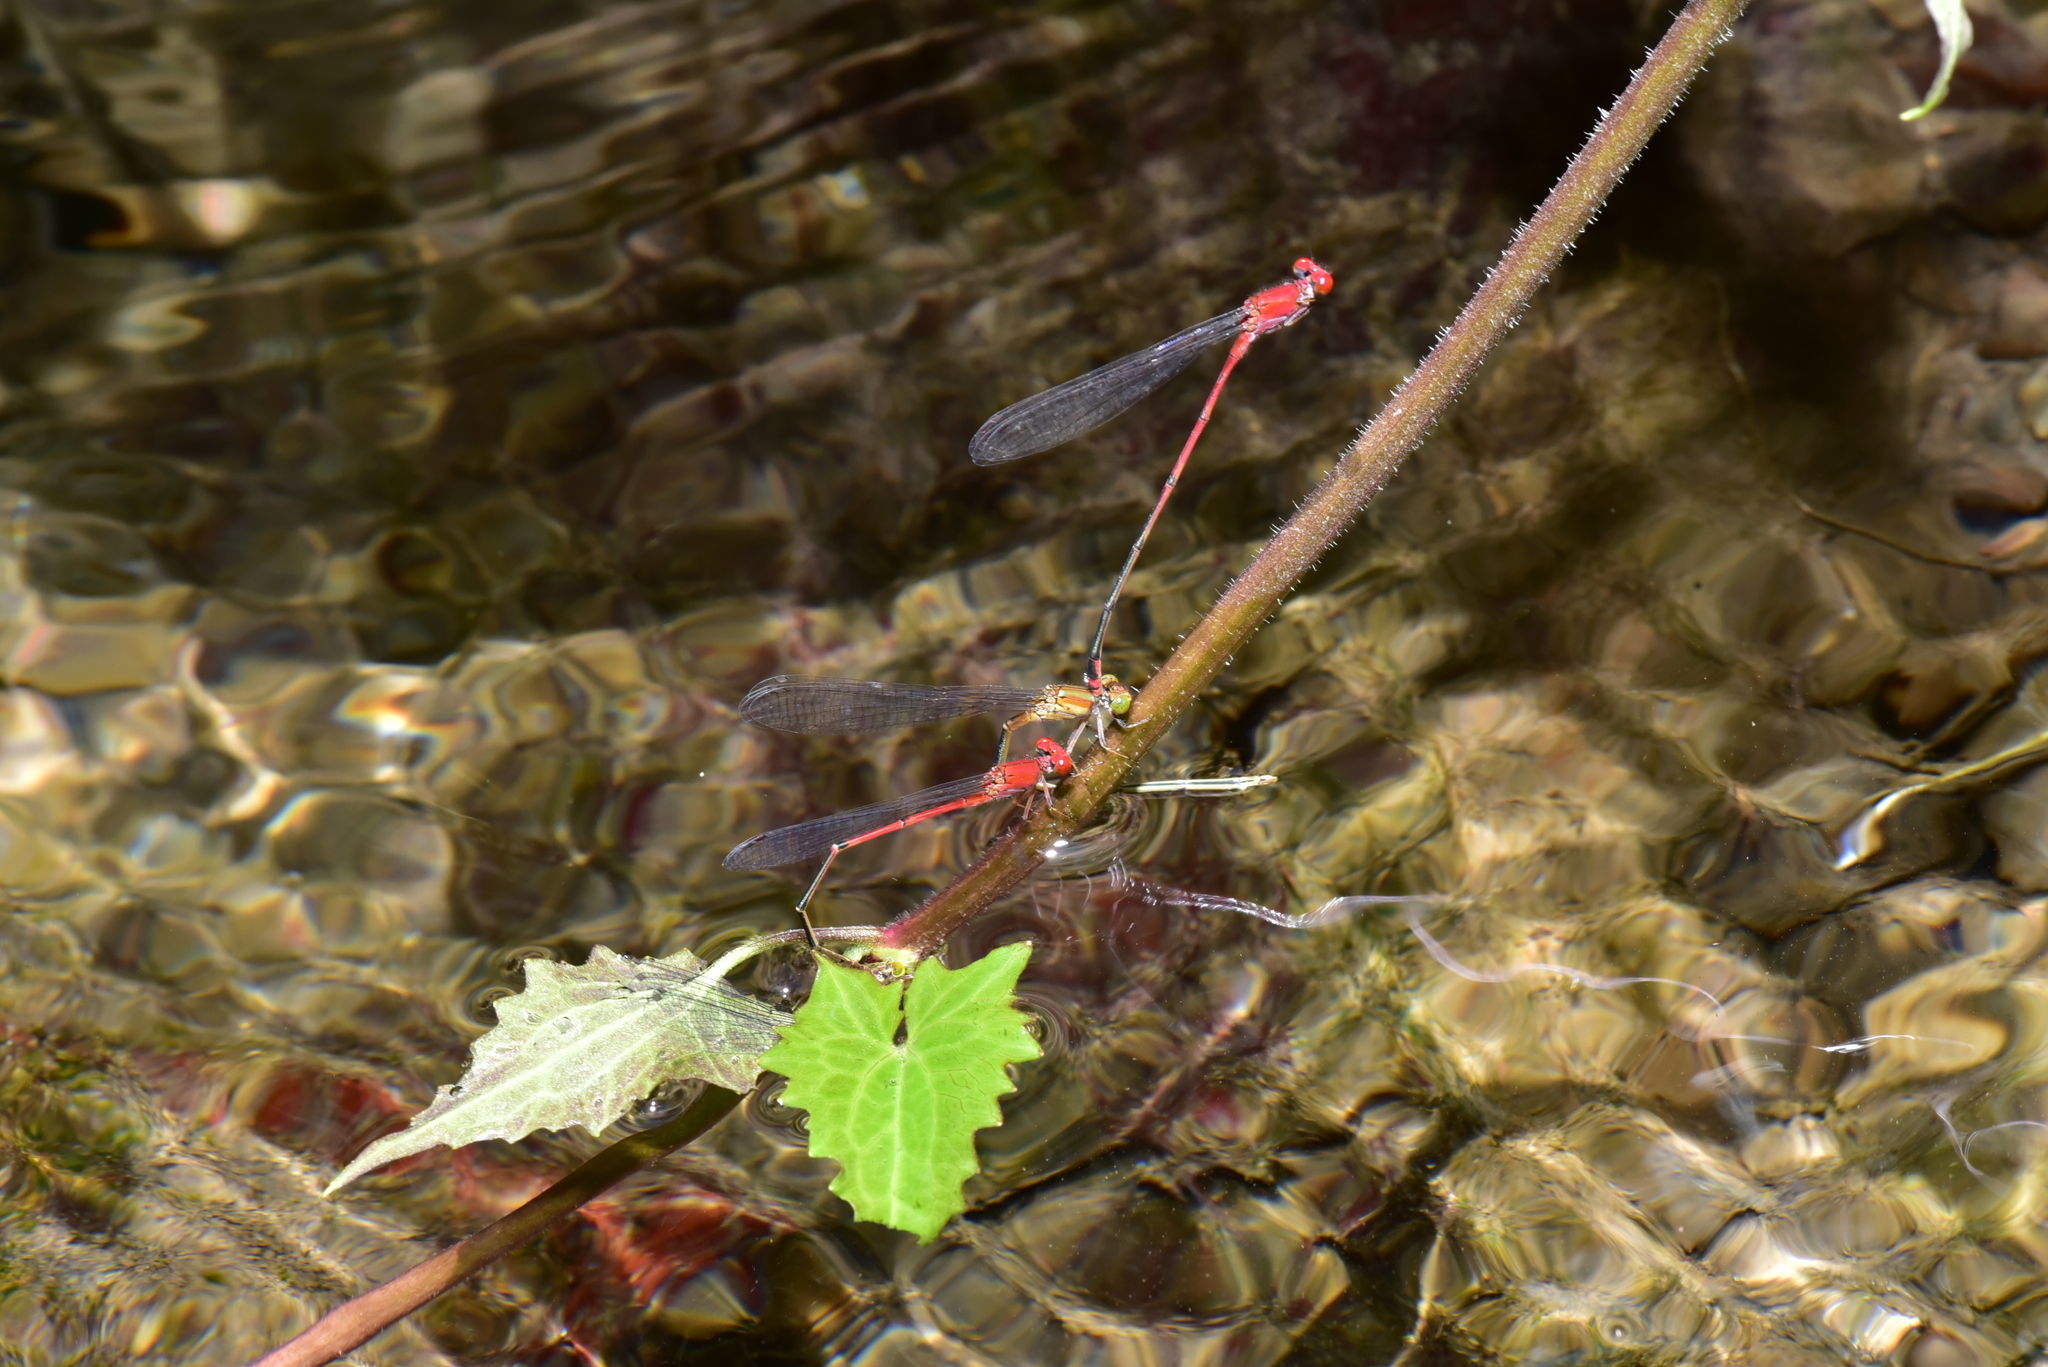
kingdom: Animalia
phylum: Arthropoda
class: Insecta
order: Odonata
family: Coenagrionidae
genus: Pseudagrion
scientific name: Pseudagrion pilidorsum
